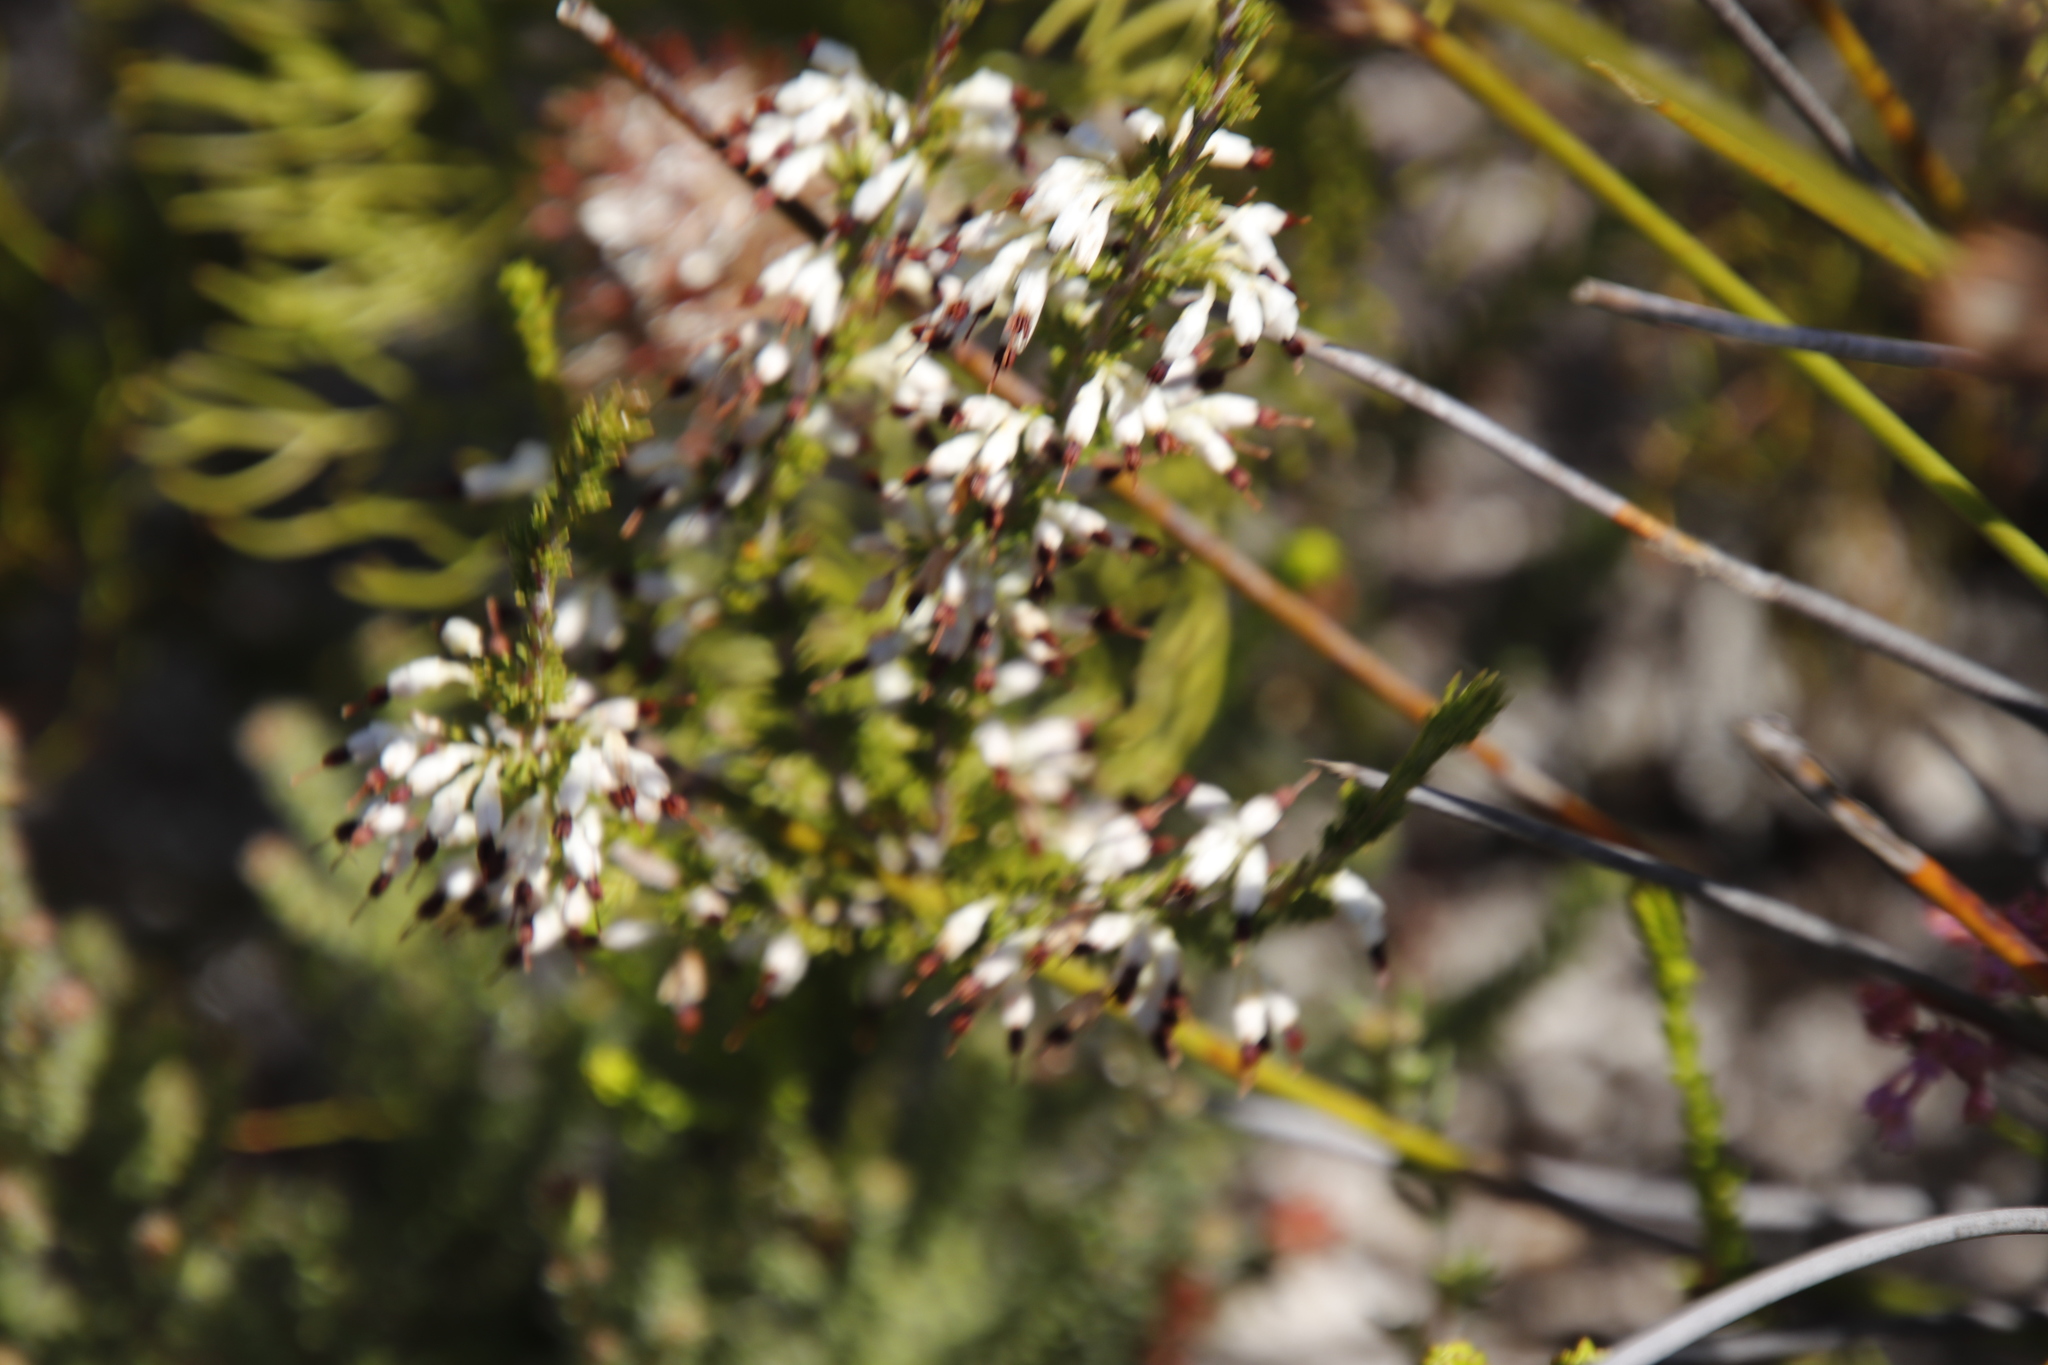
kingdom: Plantae
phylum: Tracheophyta
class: Magnoliopsida
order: Ericales
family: Ericaceae
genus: Erica
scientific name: Erica imbricata
